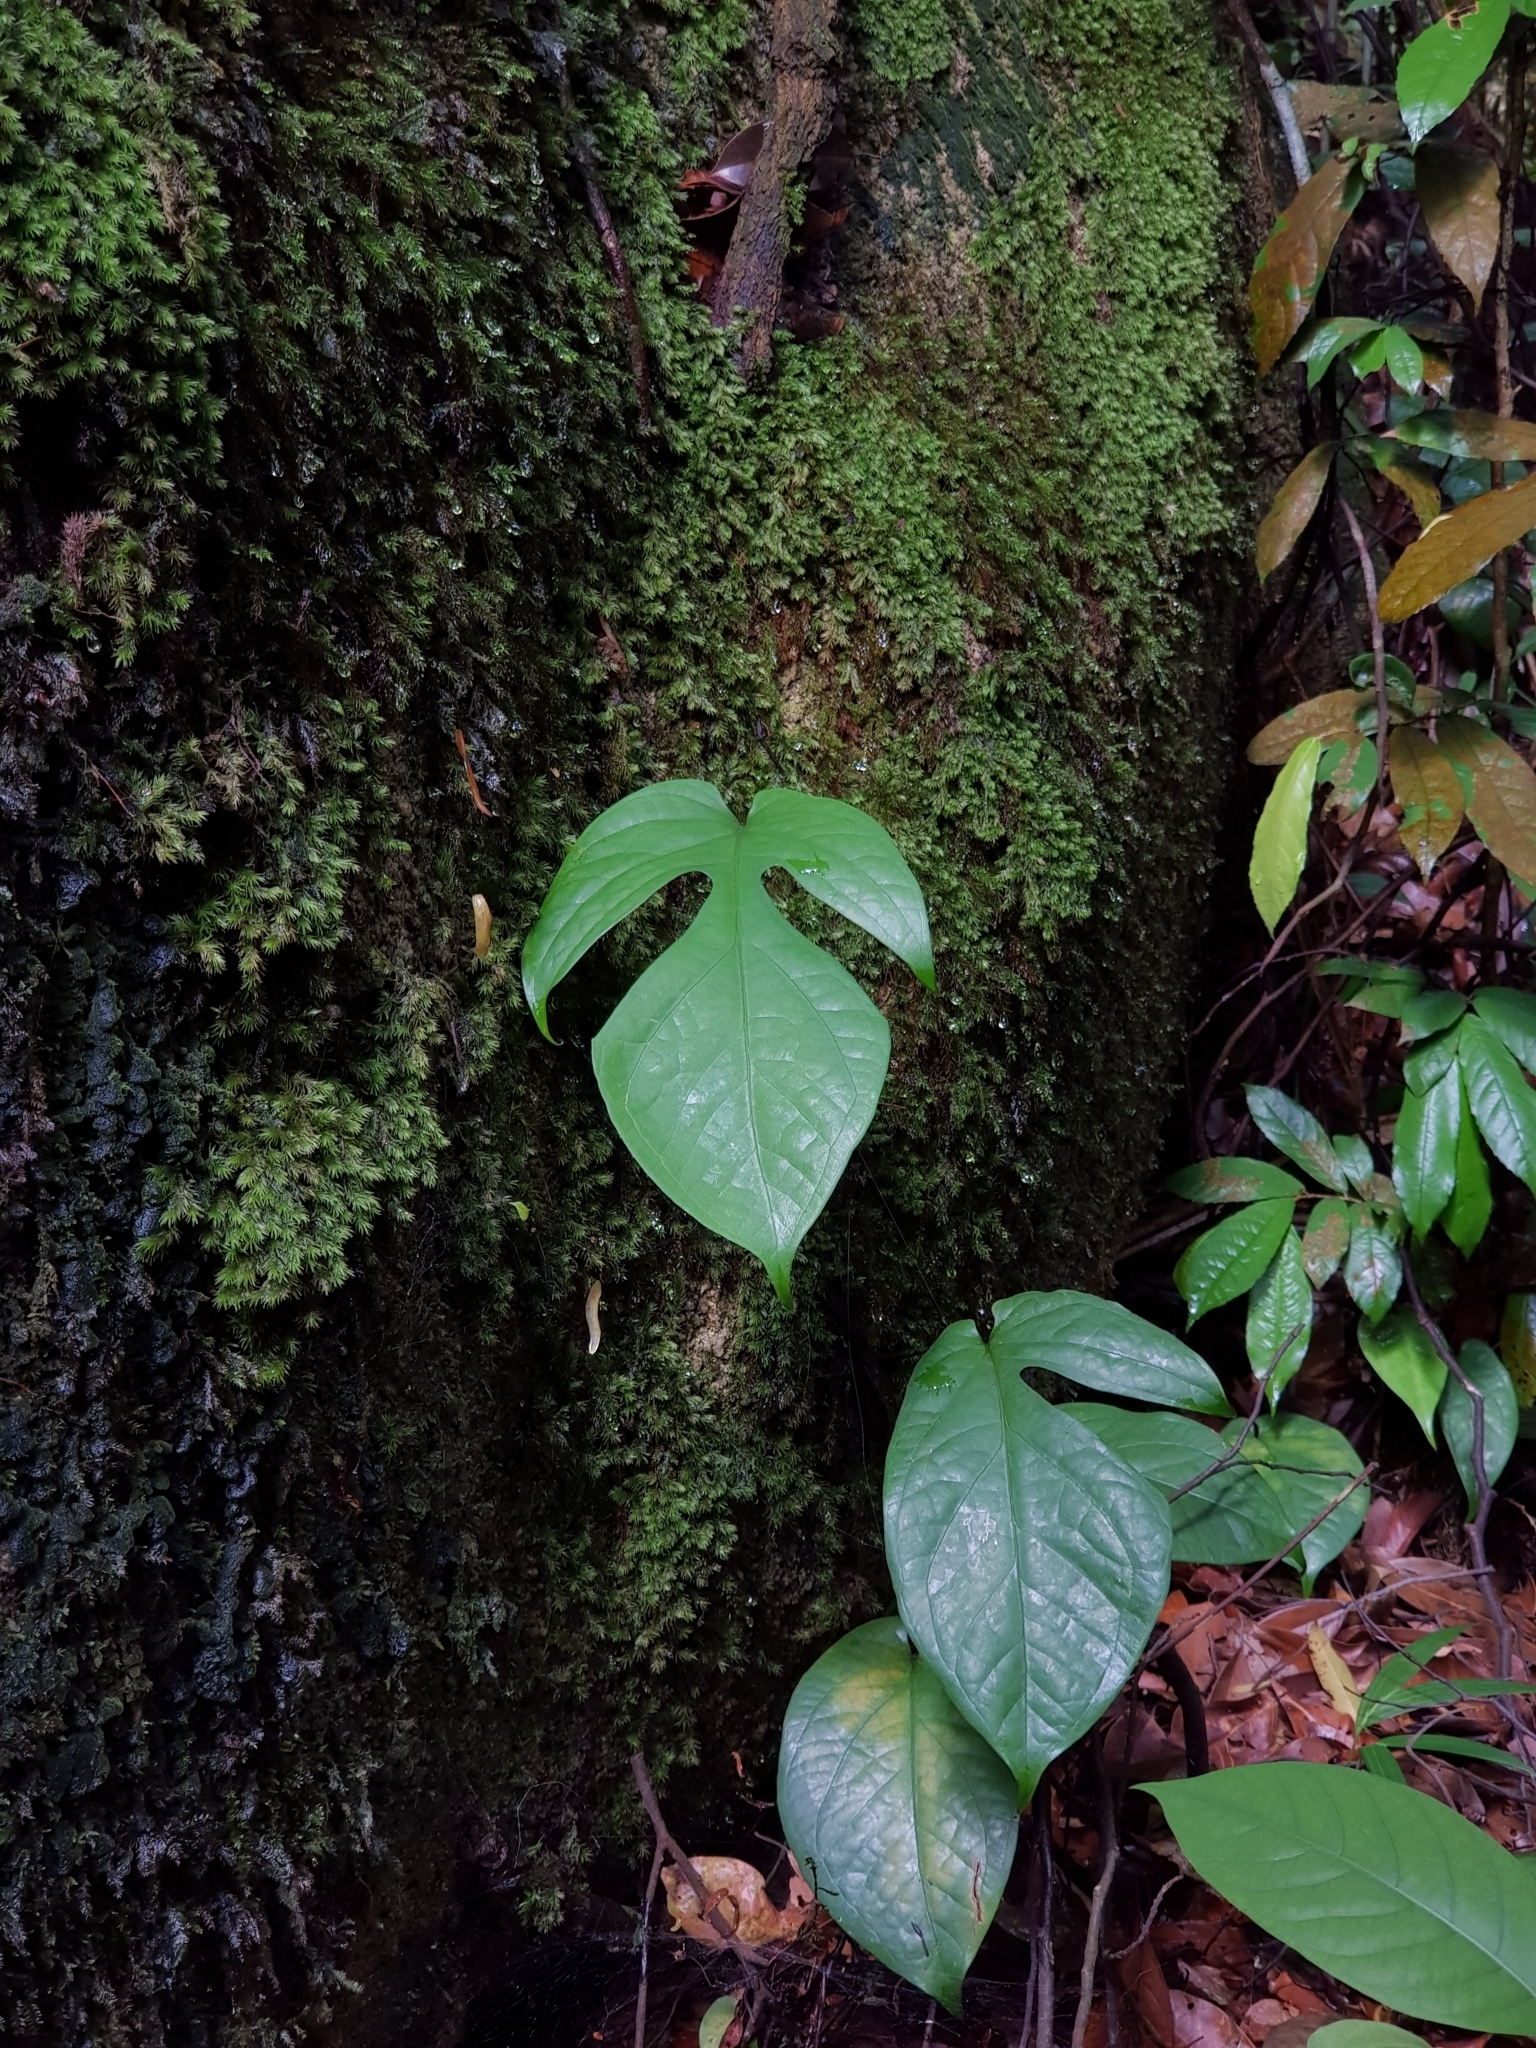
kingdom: Plantae
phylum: Tracheophyta
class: Liliopsida
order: Alismatales
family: Araceae
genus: Amydrium
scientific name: Amydrium medium
